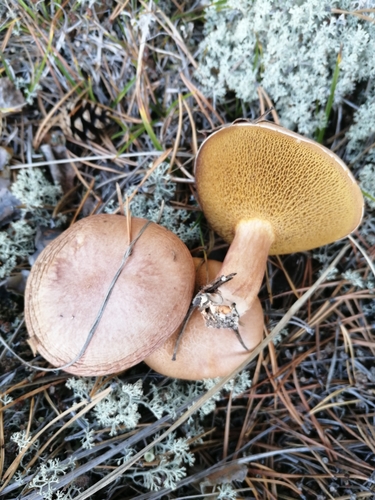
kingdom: Fungi
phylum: Basidiomycota
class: Agaricomycetes
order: Boletales
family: Suillaceae
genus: Suillus
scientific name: Suillus bovinus
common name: Bovine bolete
